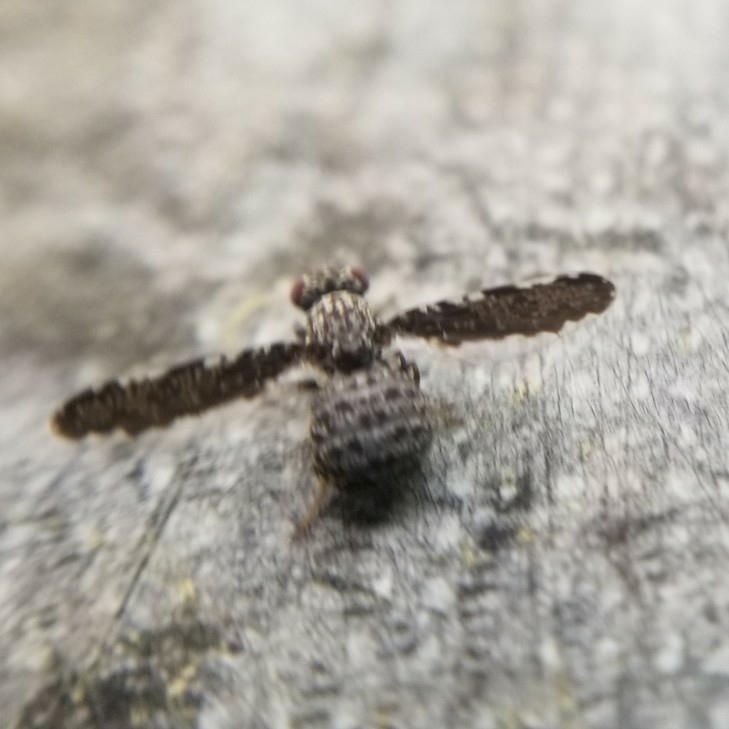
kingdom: Animalia
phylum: Arthropoda
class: Insecta
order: Diptera
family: Ulidiidae
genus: Callopistromyia
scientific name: Callopistromyia strigula
